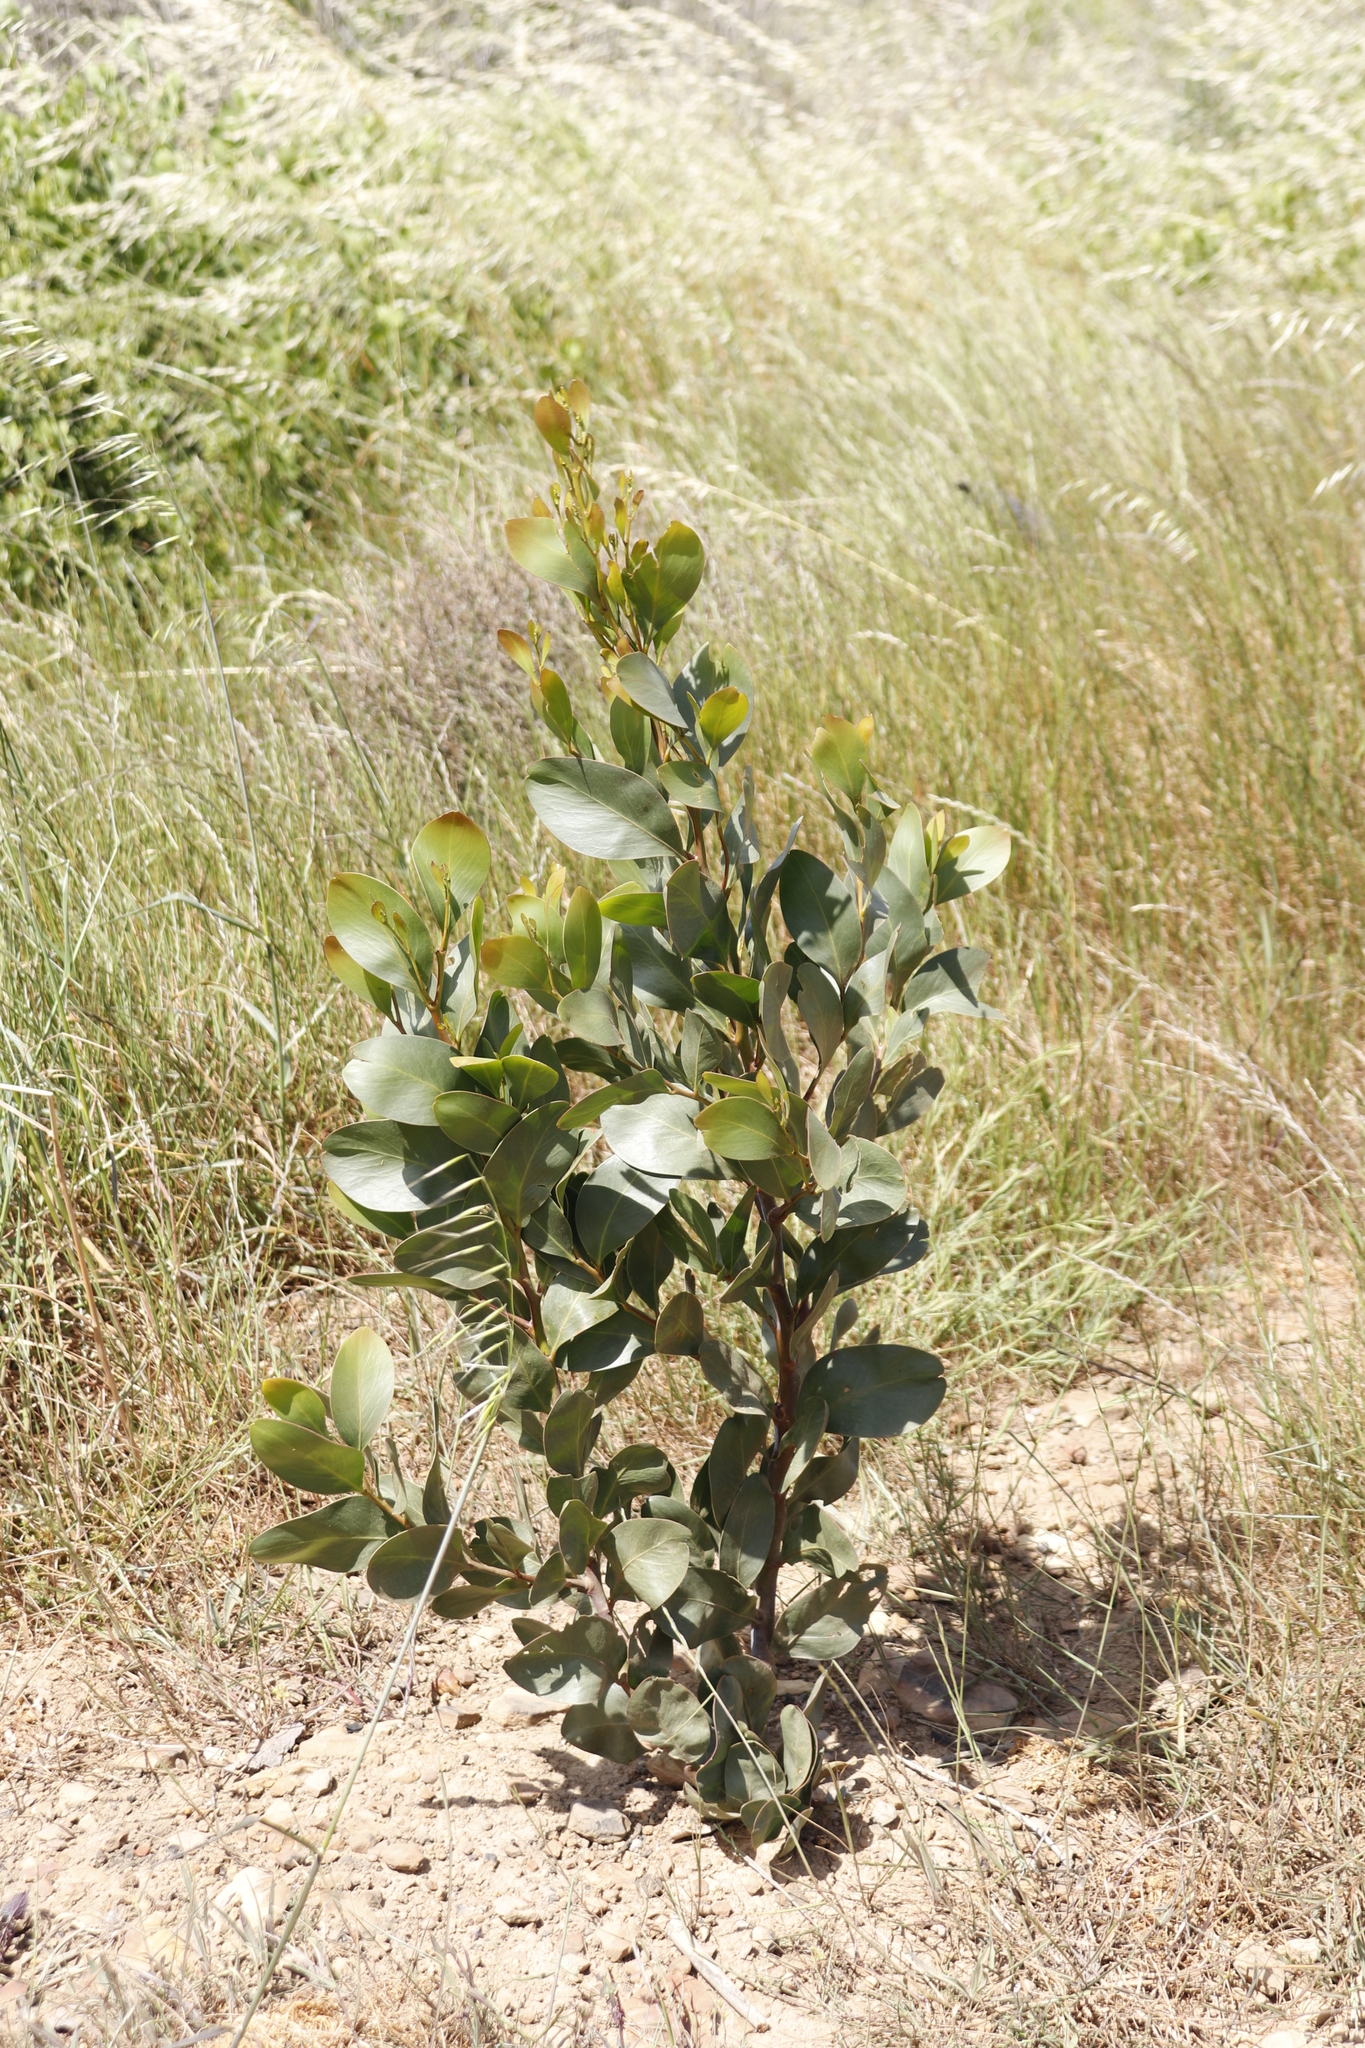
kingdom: Plantae
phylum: Tracheophyta
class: Magnoliopsida
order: Fabales
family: Fabaceae
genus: Acacia
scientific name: Acacia pycnantha
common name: Golden wattle
